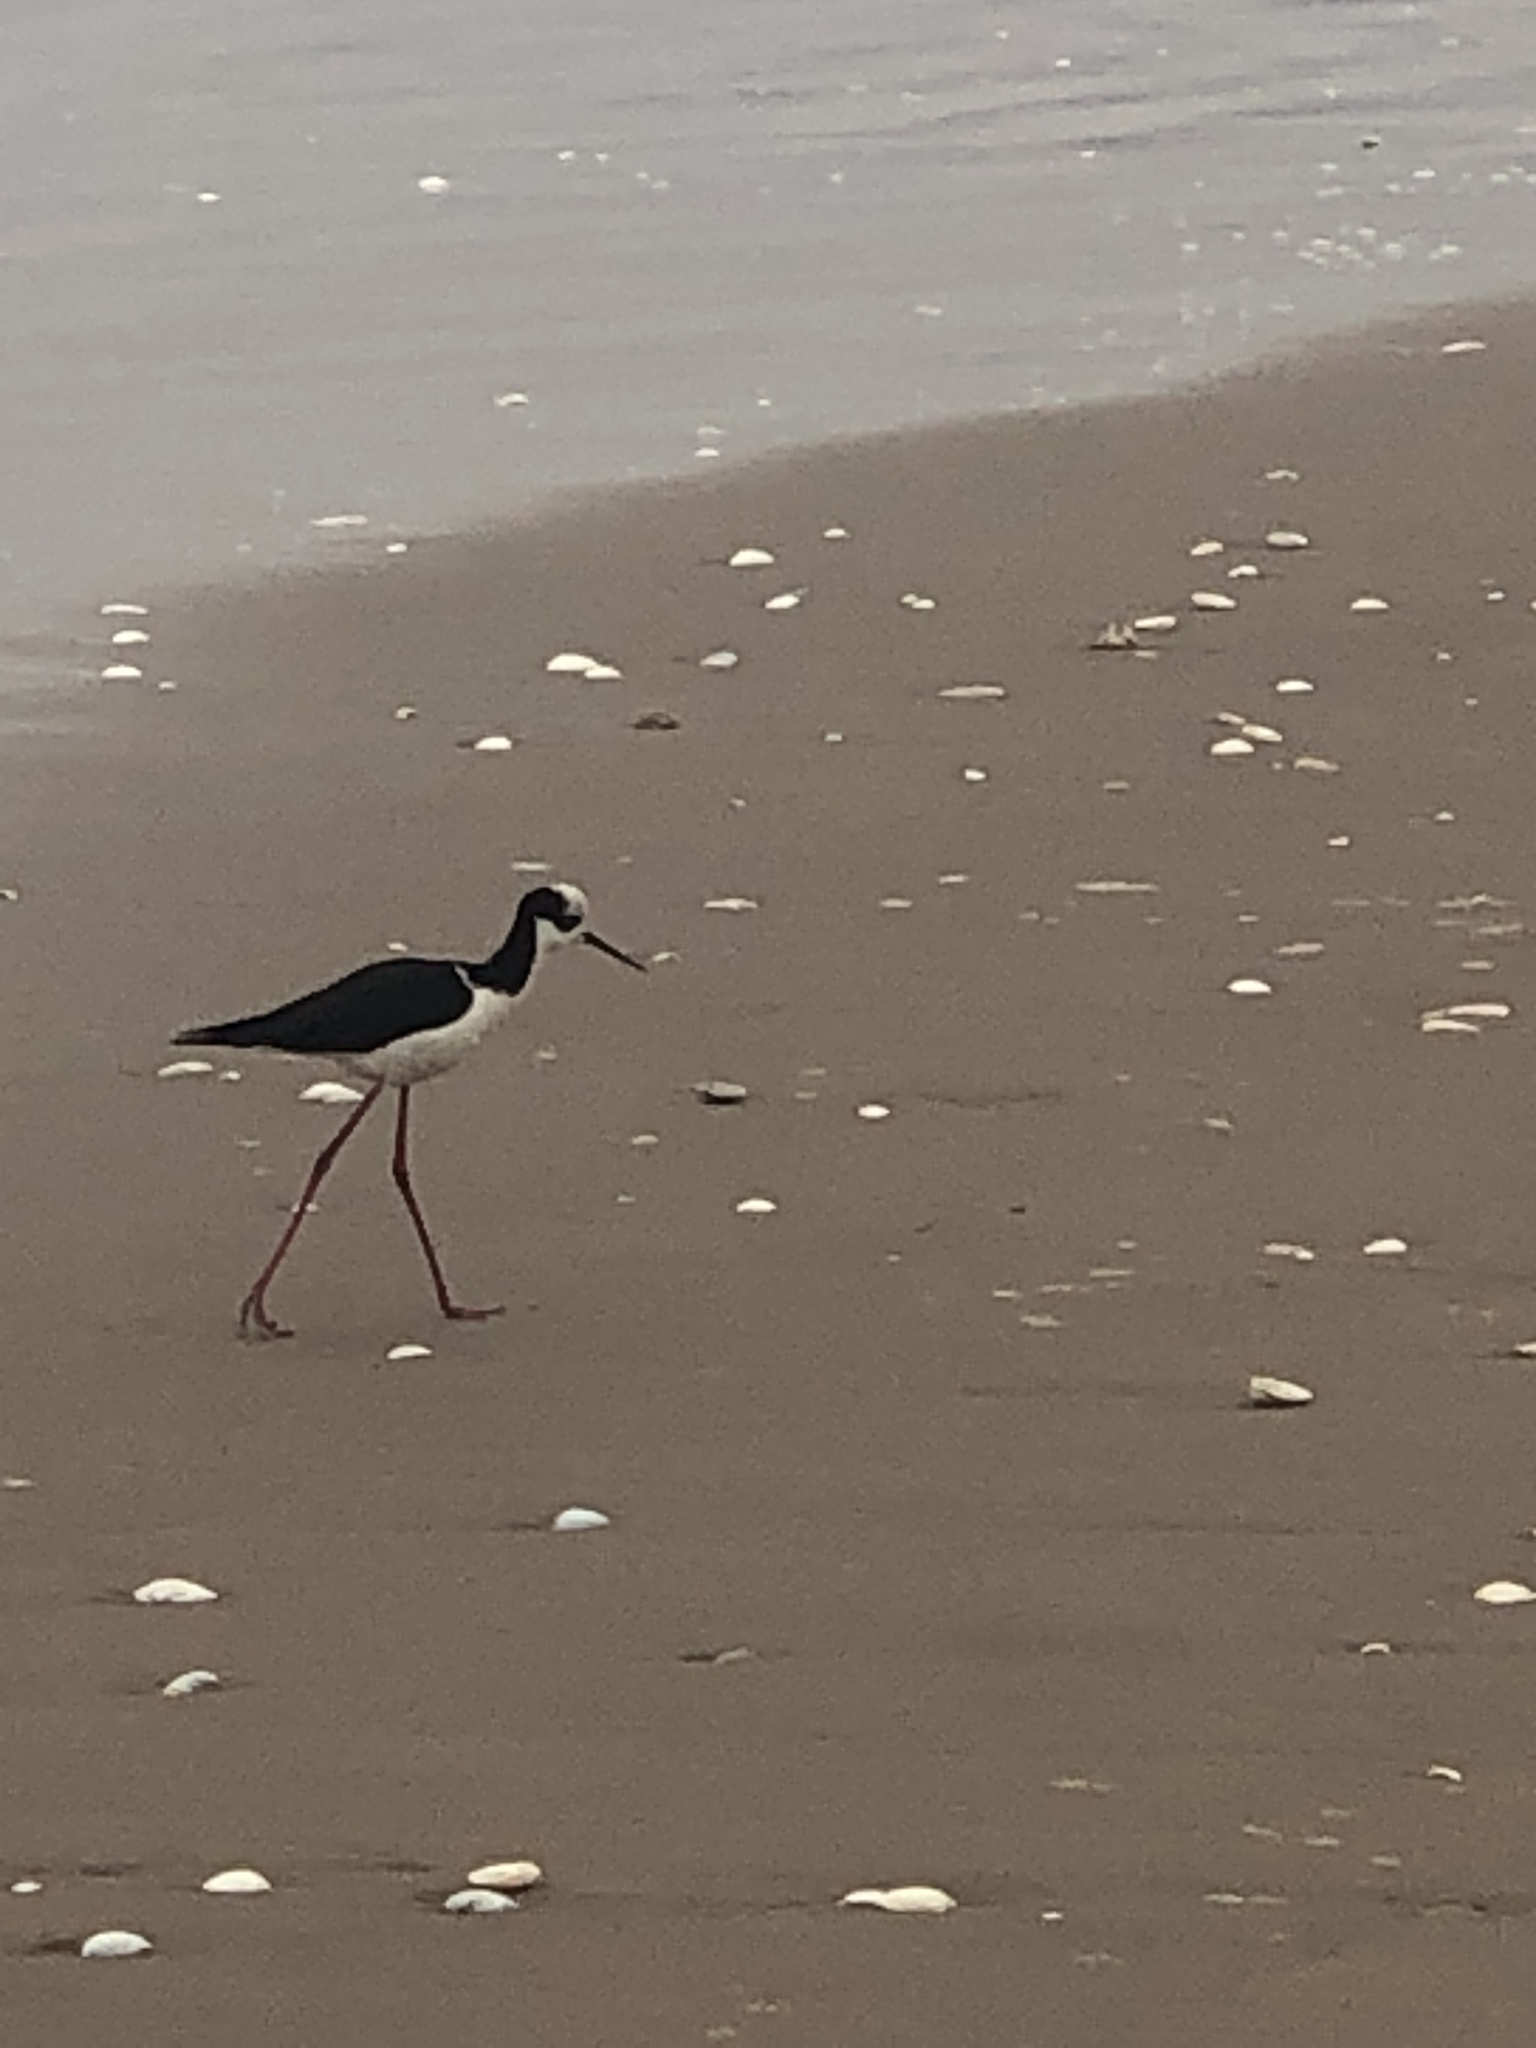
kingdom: Animalia
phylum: Chordata
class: Aves
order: Charadriiformes
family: Recurvirostridae
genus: Himantopus
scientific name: Himantopus mexicanus
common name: Black-necked stilt
